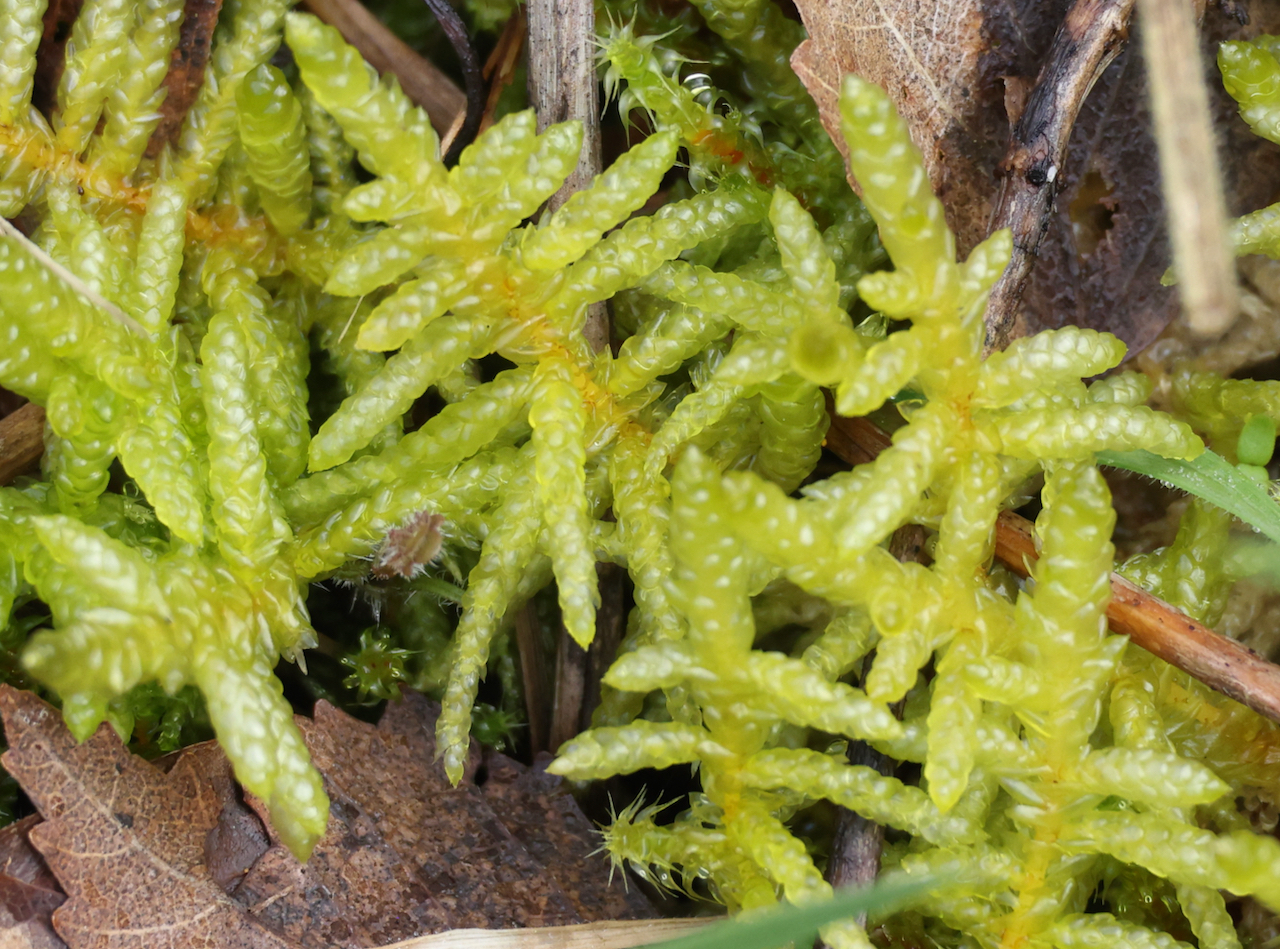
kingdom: Plantae
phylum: Bryophyta
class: Bryopsida
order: Hypnales
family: Brachytheciaceae
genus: Pseudoscleropodium
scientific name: Pseudoscleropodium purum
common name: Neat feather-moss
